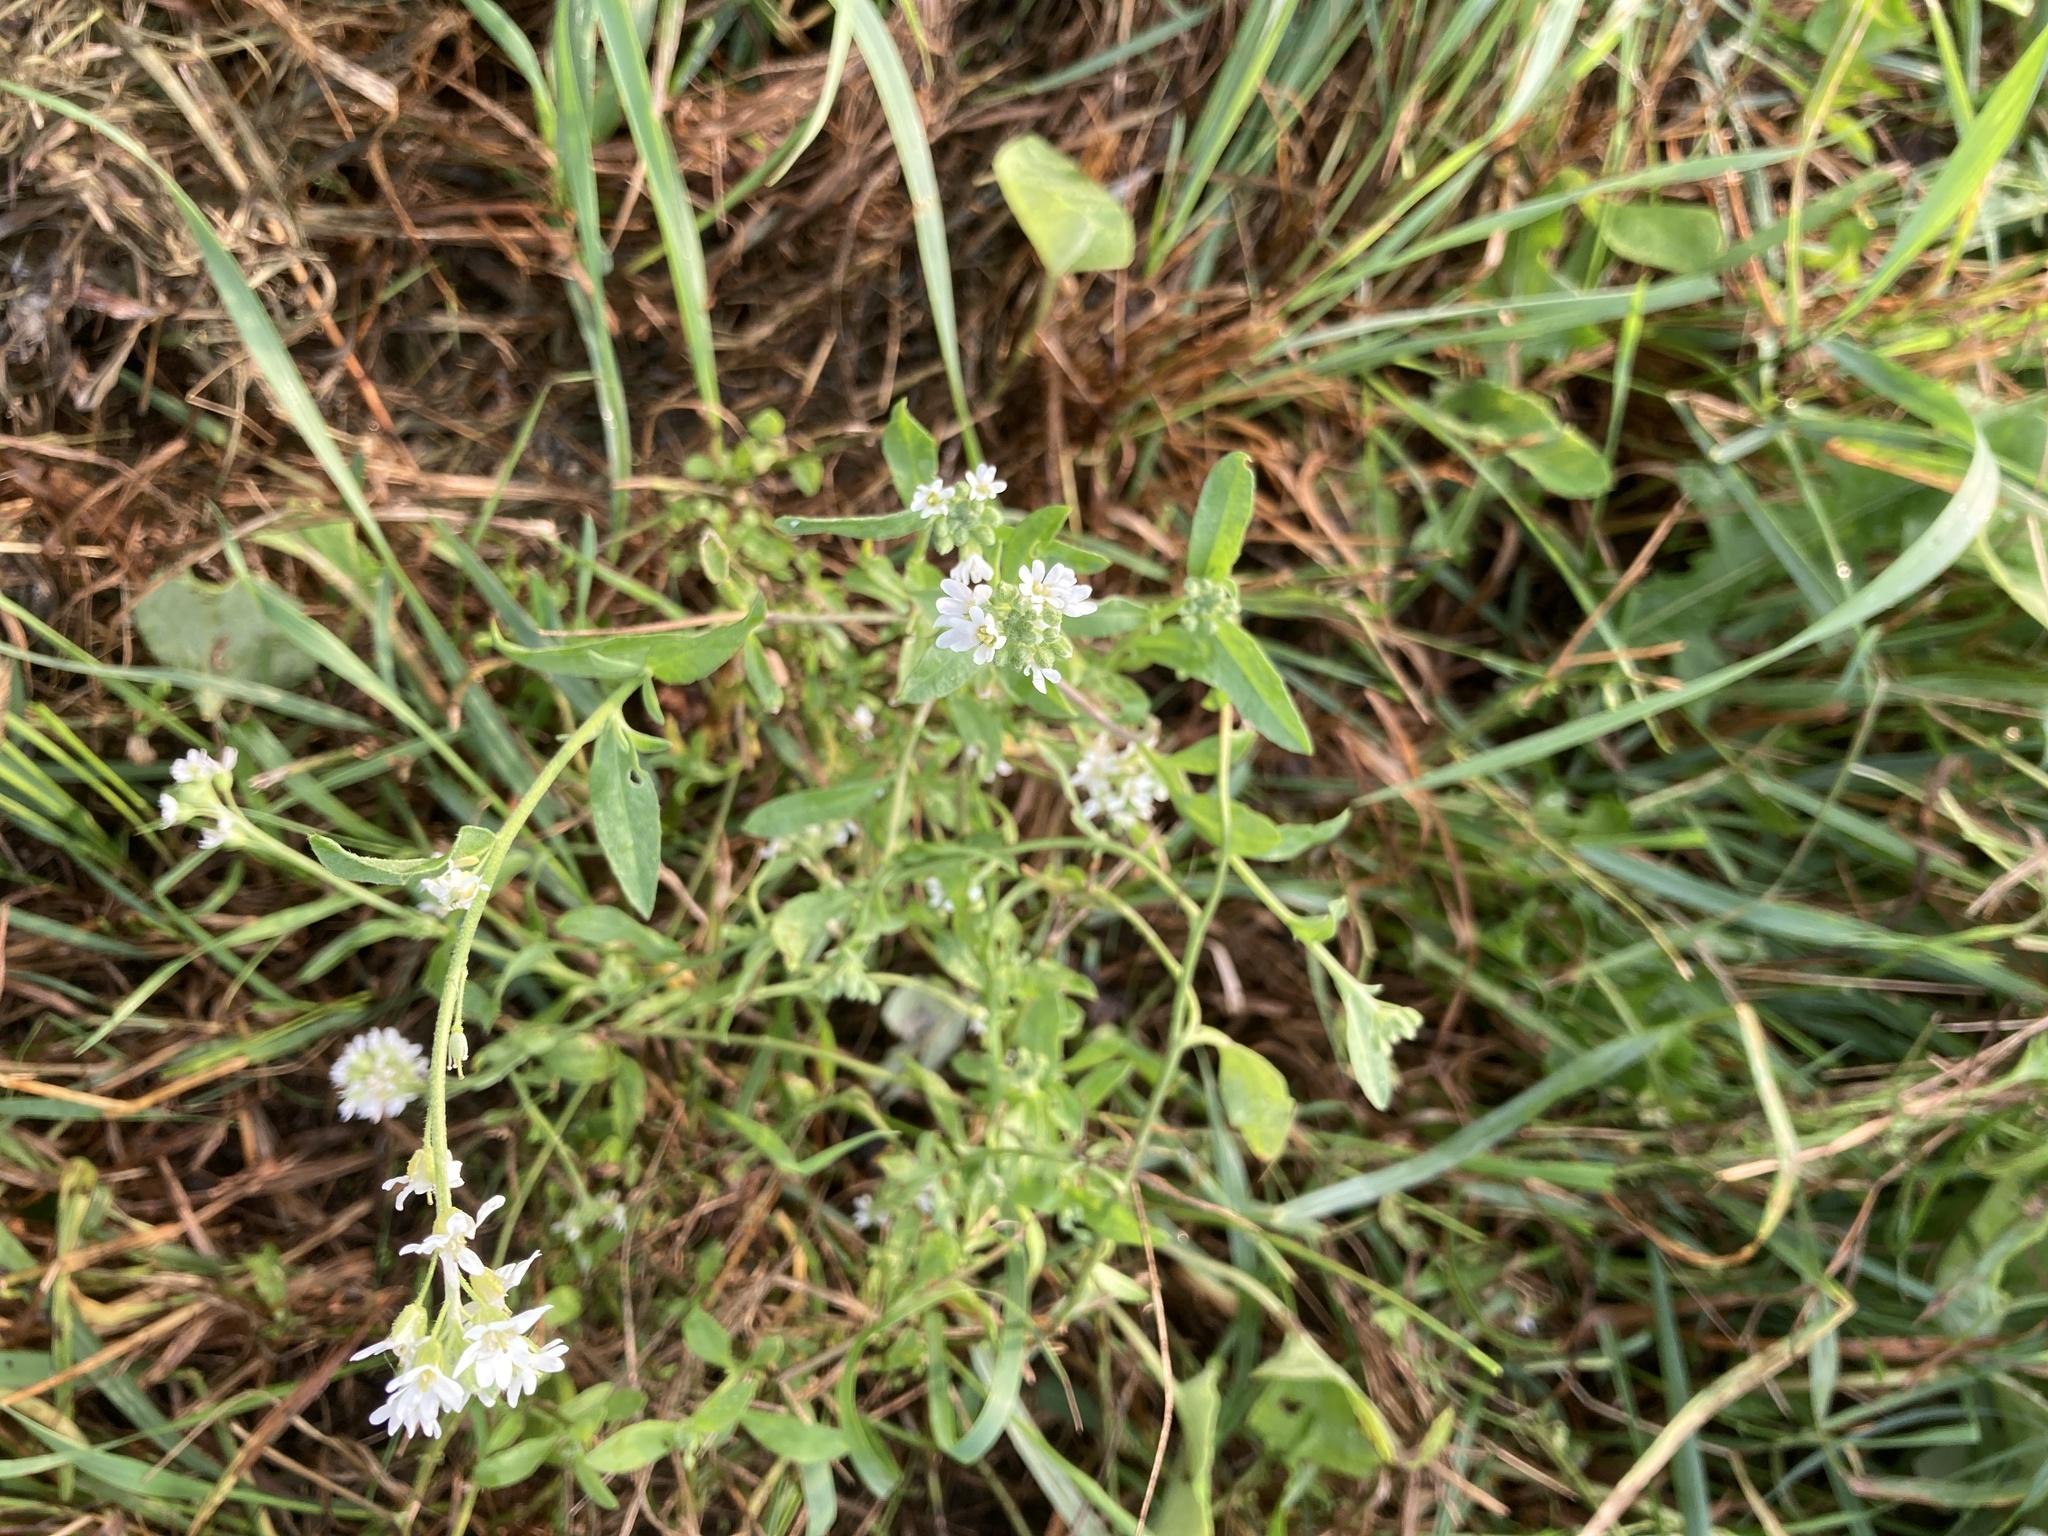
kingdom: Plantae
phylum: Tracheophyta
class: Magnoliopsida
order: Brassicales
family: Brassicaceae
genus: Berteroa
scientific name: Berteroa incana
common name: Hoary alison
